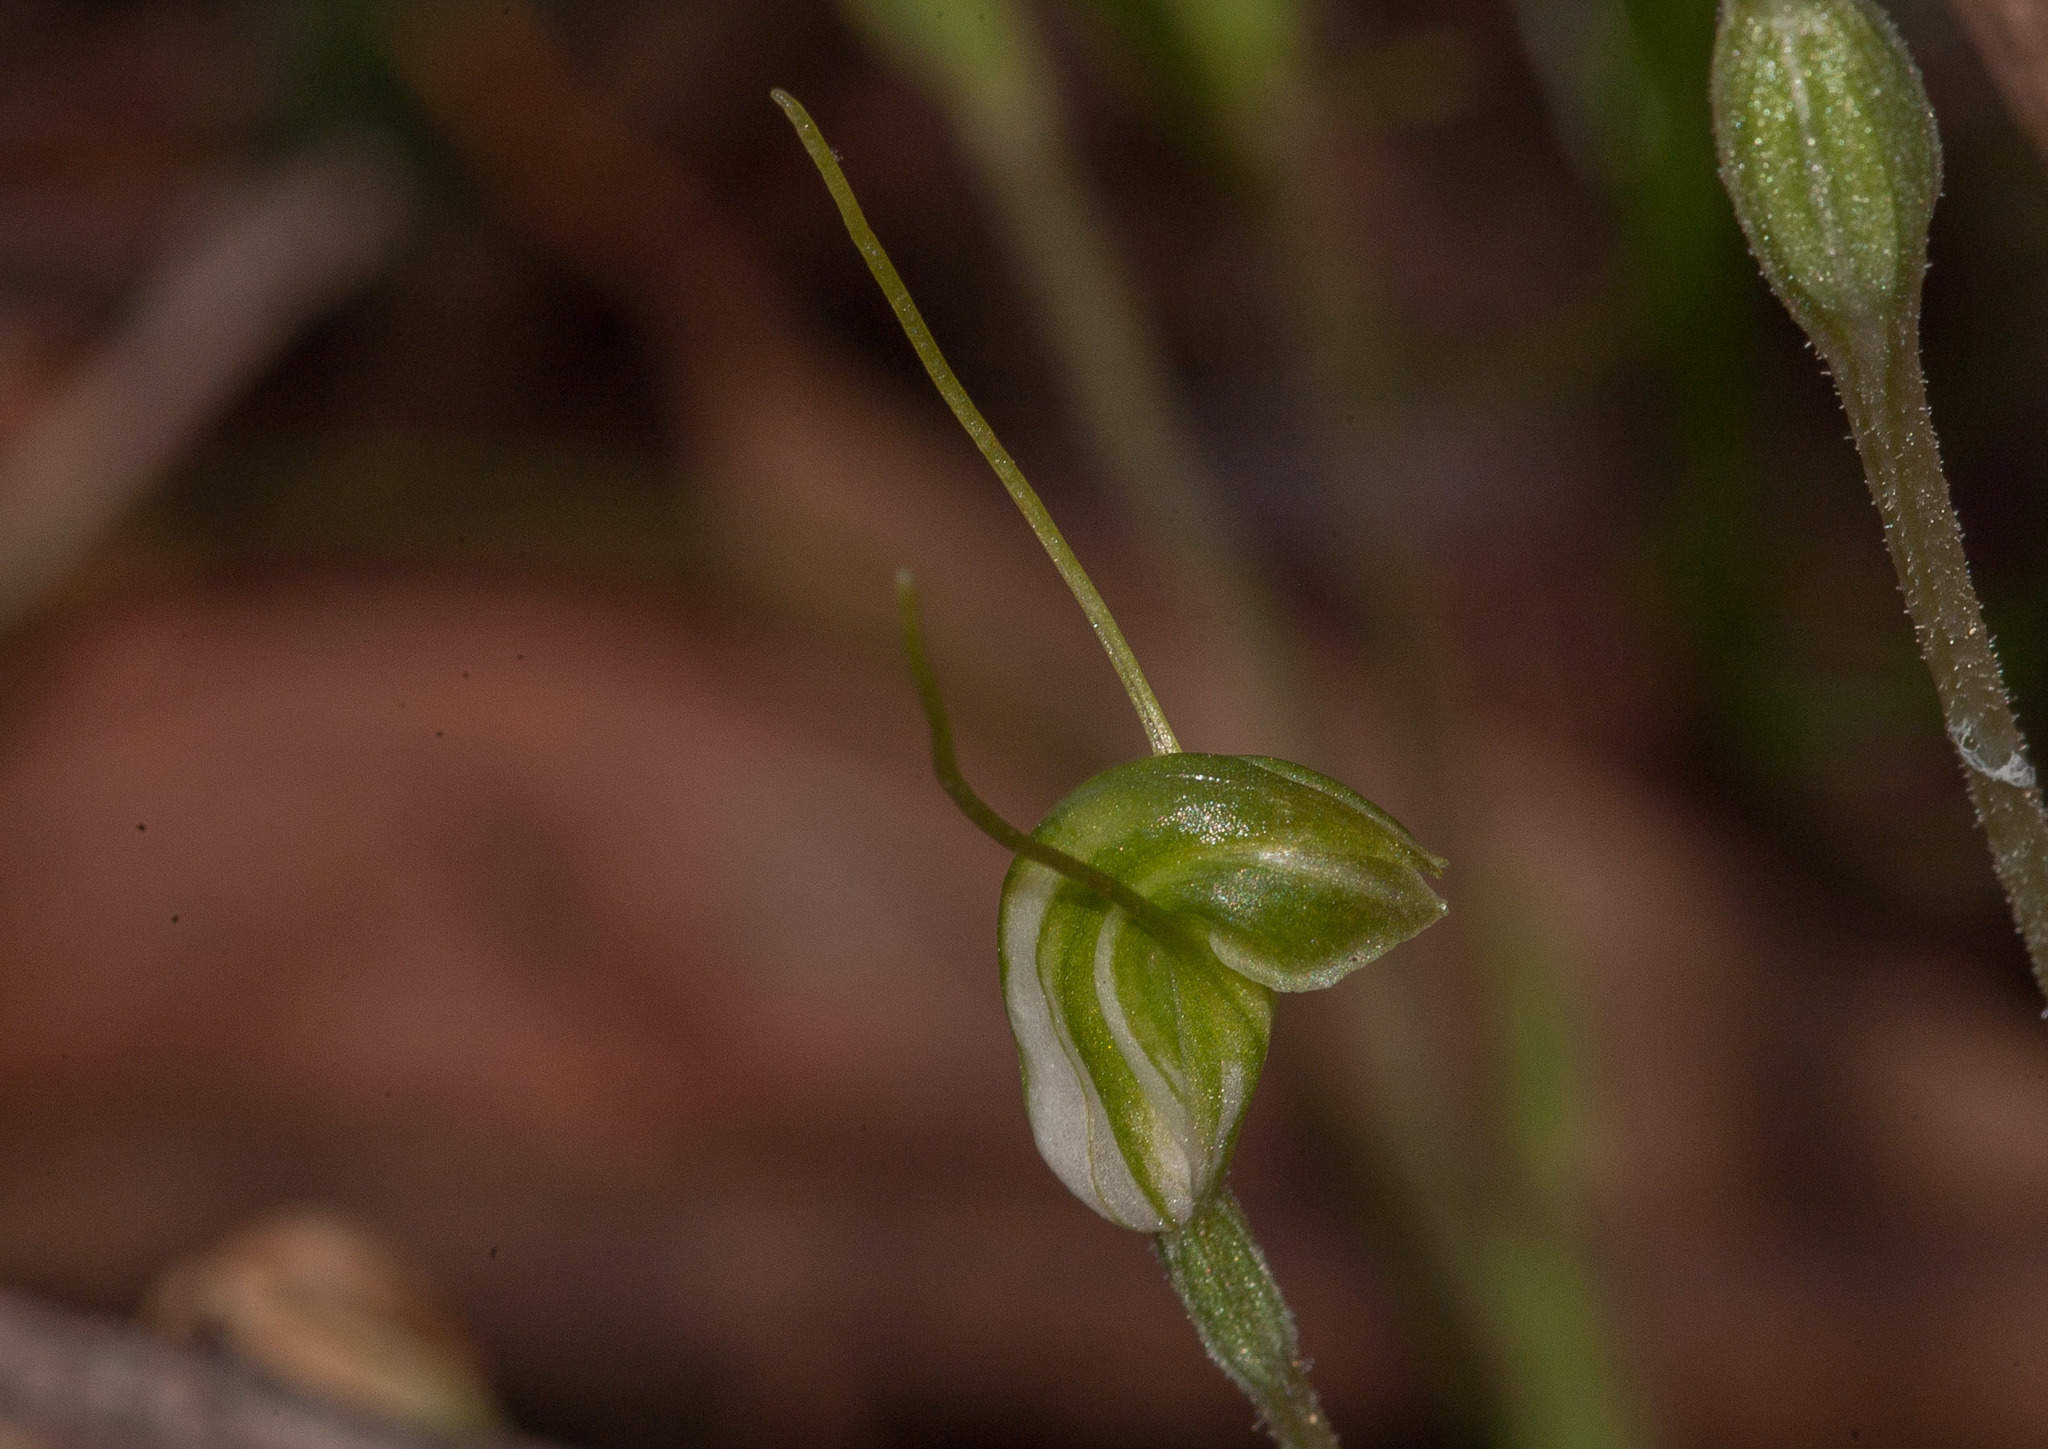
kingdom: Plantae
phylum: Tracheophyta
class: Liliopsida
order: Asparagales
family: Orchidaceae
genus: Pterostylis
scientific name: Pterostylis nana
